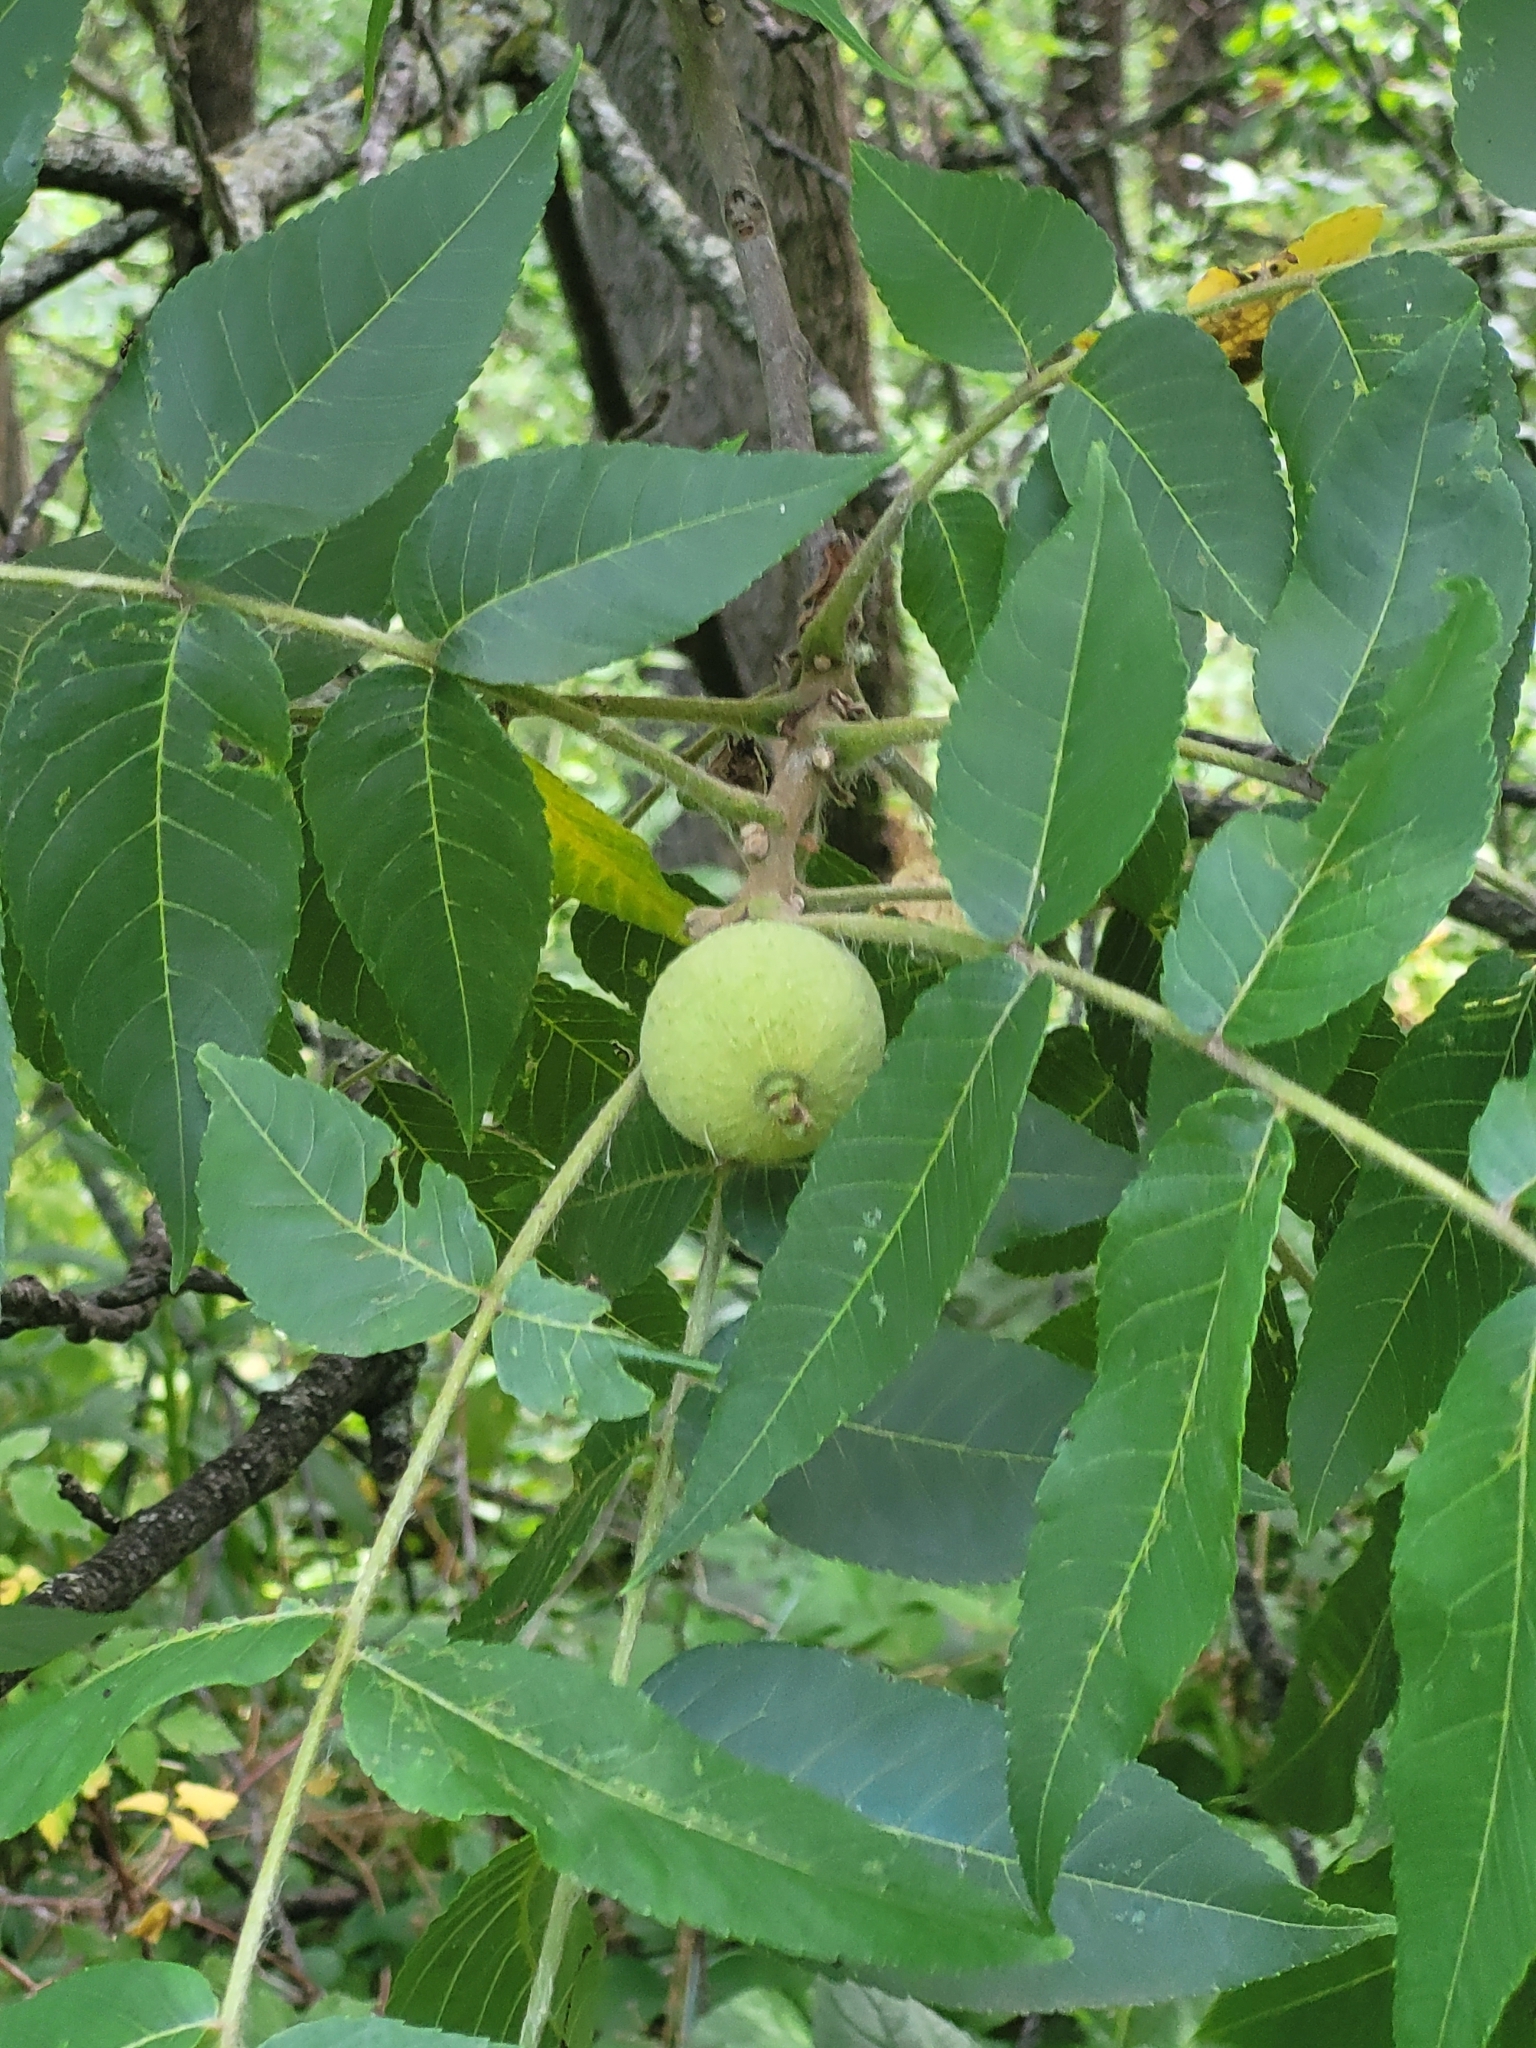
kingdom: Plantae
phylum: Tracheophyta
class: Magnoliopsida
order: Fagales
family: Juglandaceae
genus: Juglans
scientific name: Juglans nigra
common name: Black walnut
